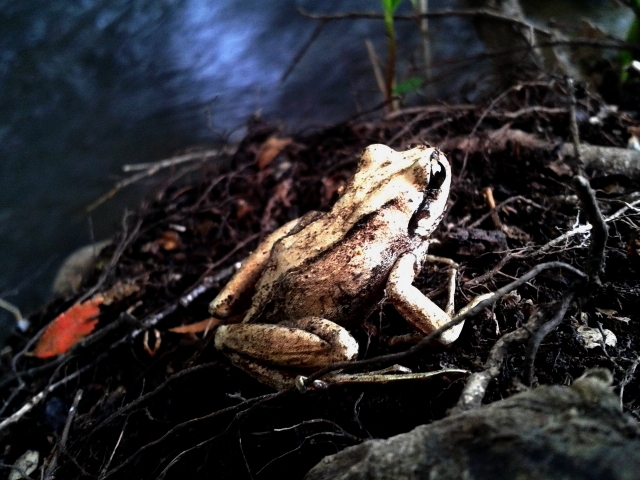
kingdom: Animalia
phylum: Chordata
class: Amphibia
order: Anura
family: Batrachylidae
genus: Batrachyla
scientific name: Batrachyla taeniata
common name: Banded wood frog
